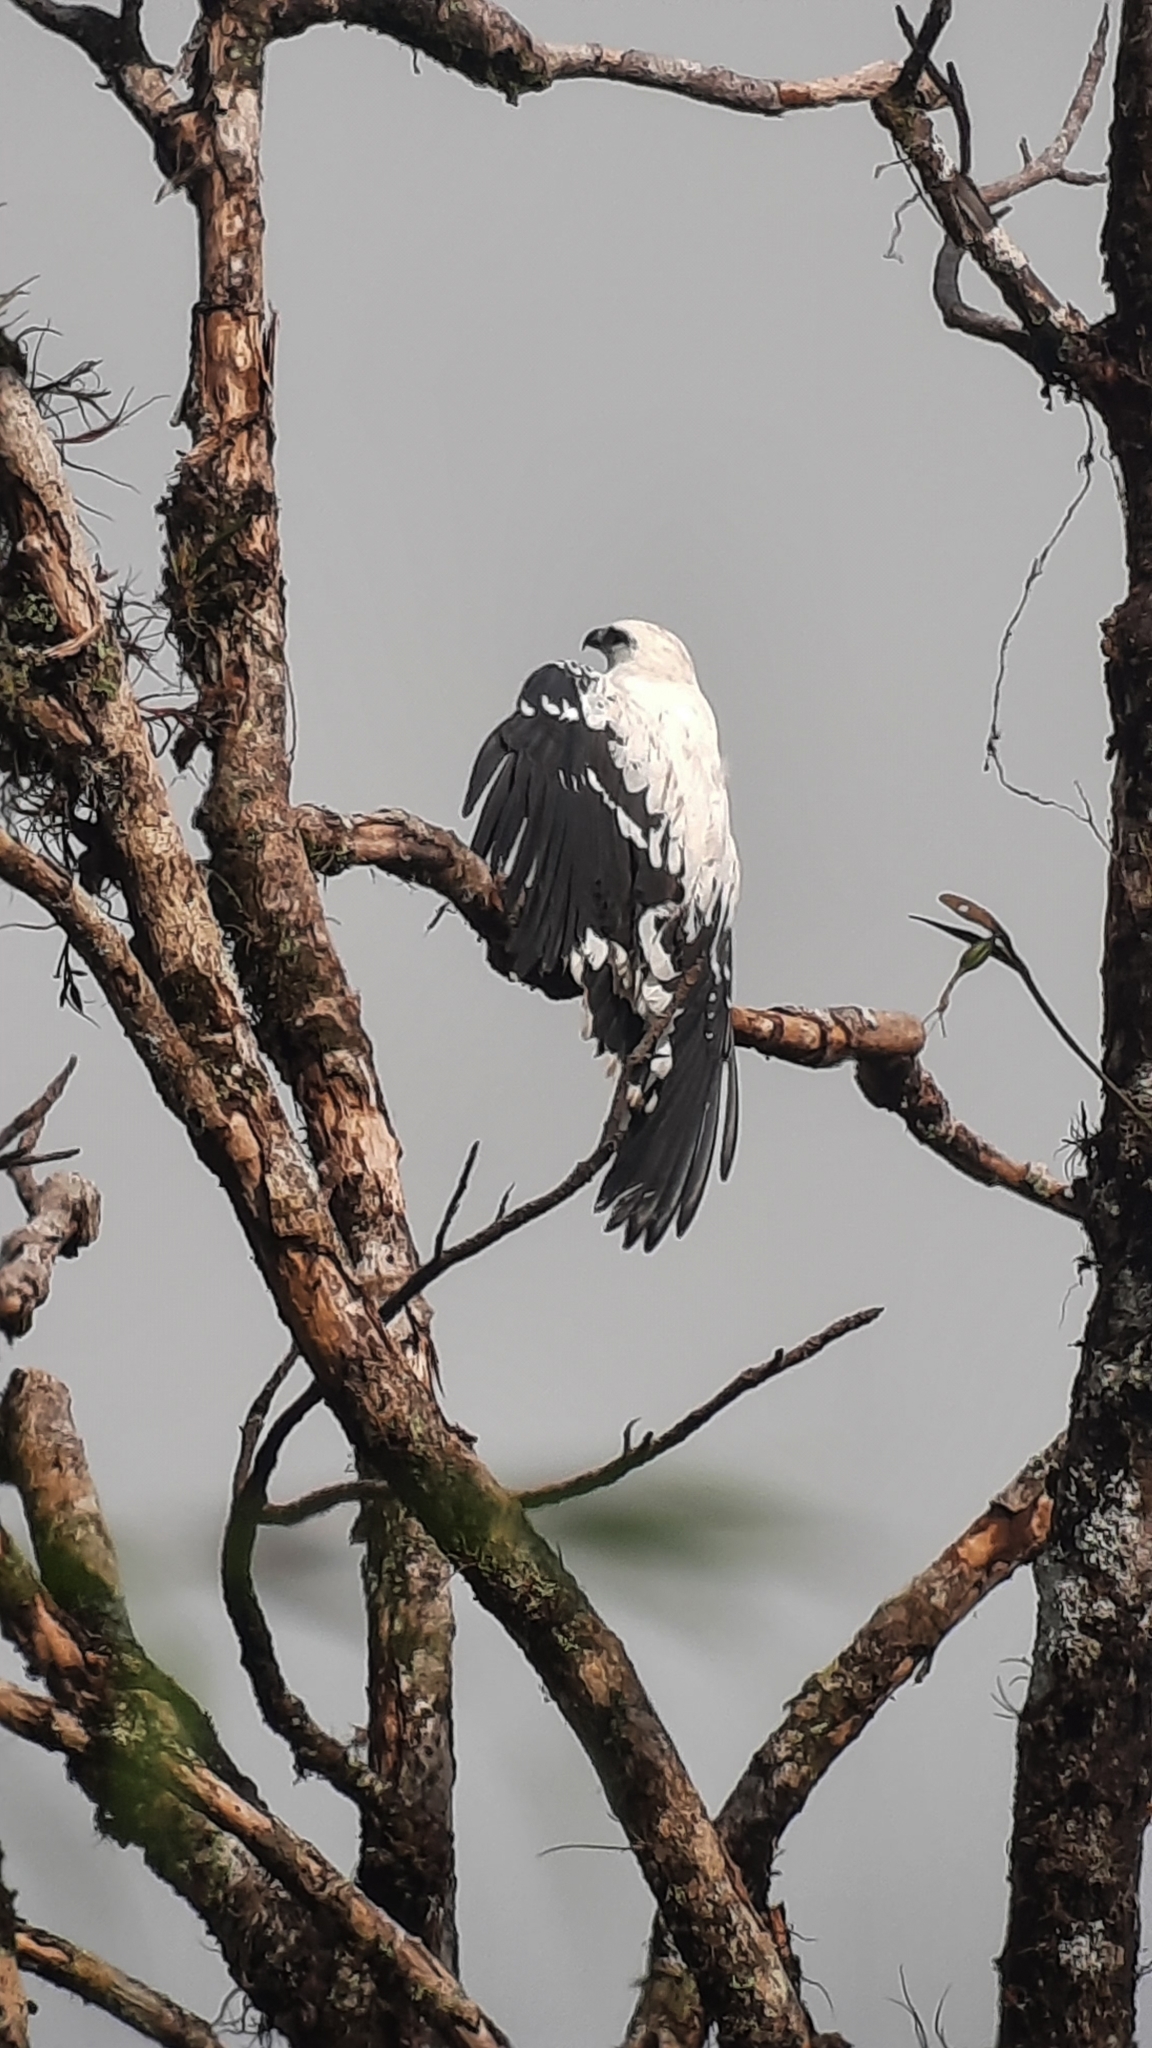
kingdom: Animalia
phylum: Chordata
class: Aves
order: Accipitriformes
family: Accipitridae
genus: Leucopternis
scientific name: Leucopternis albicollis
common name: White hawk
